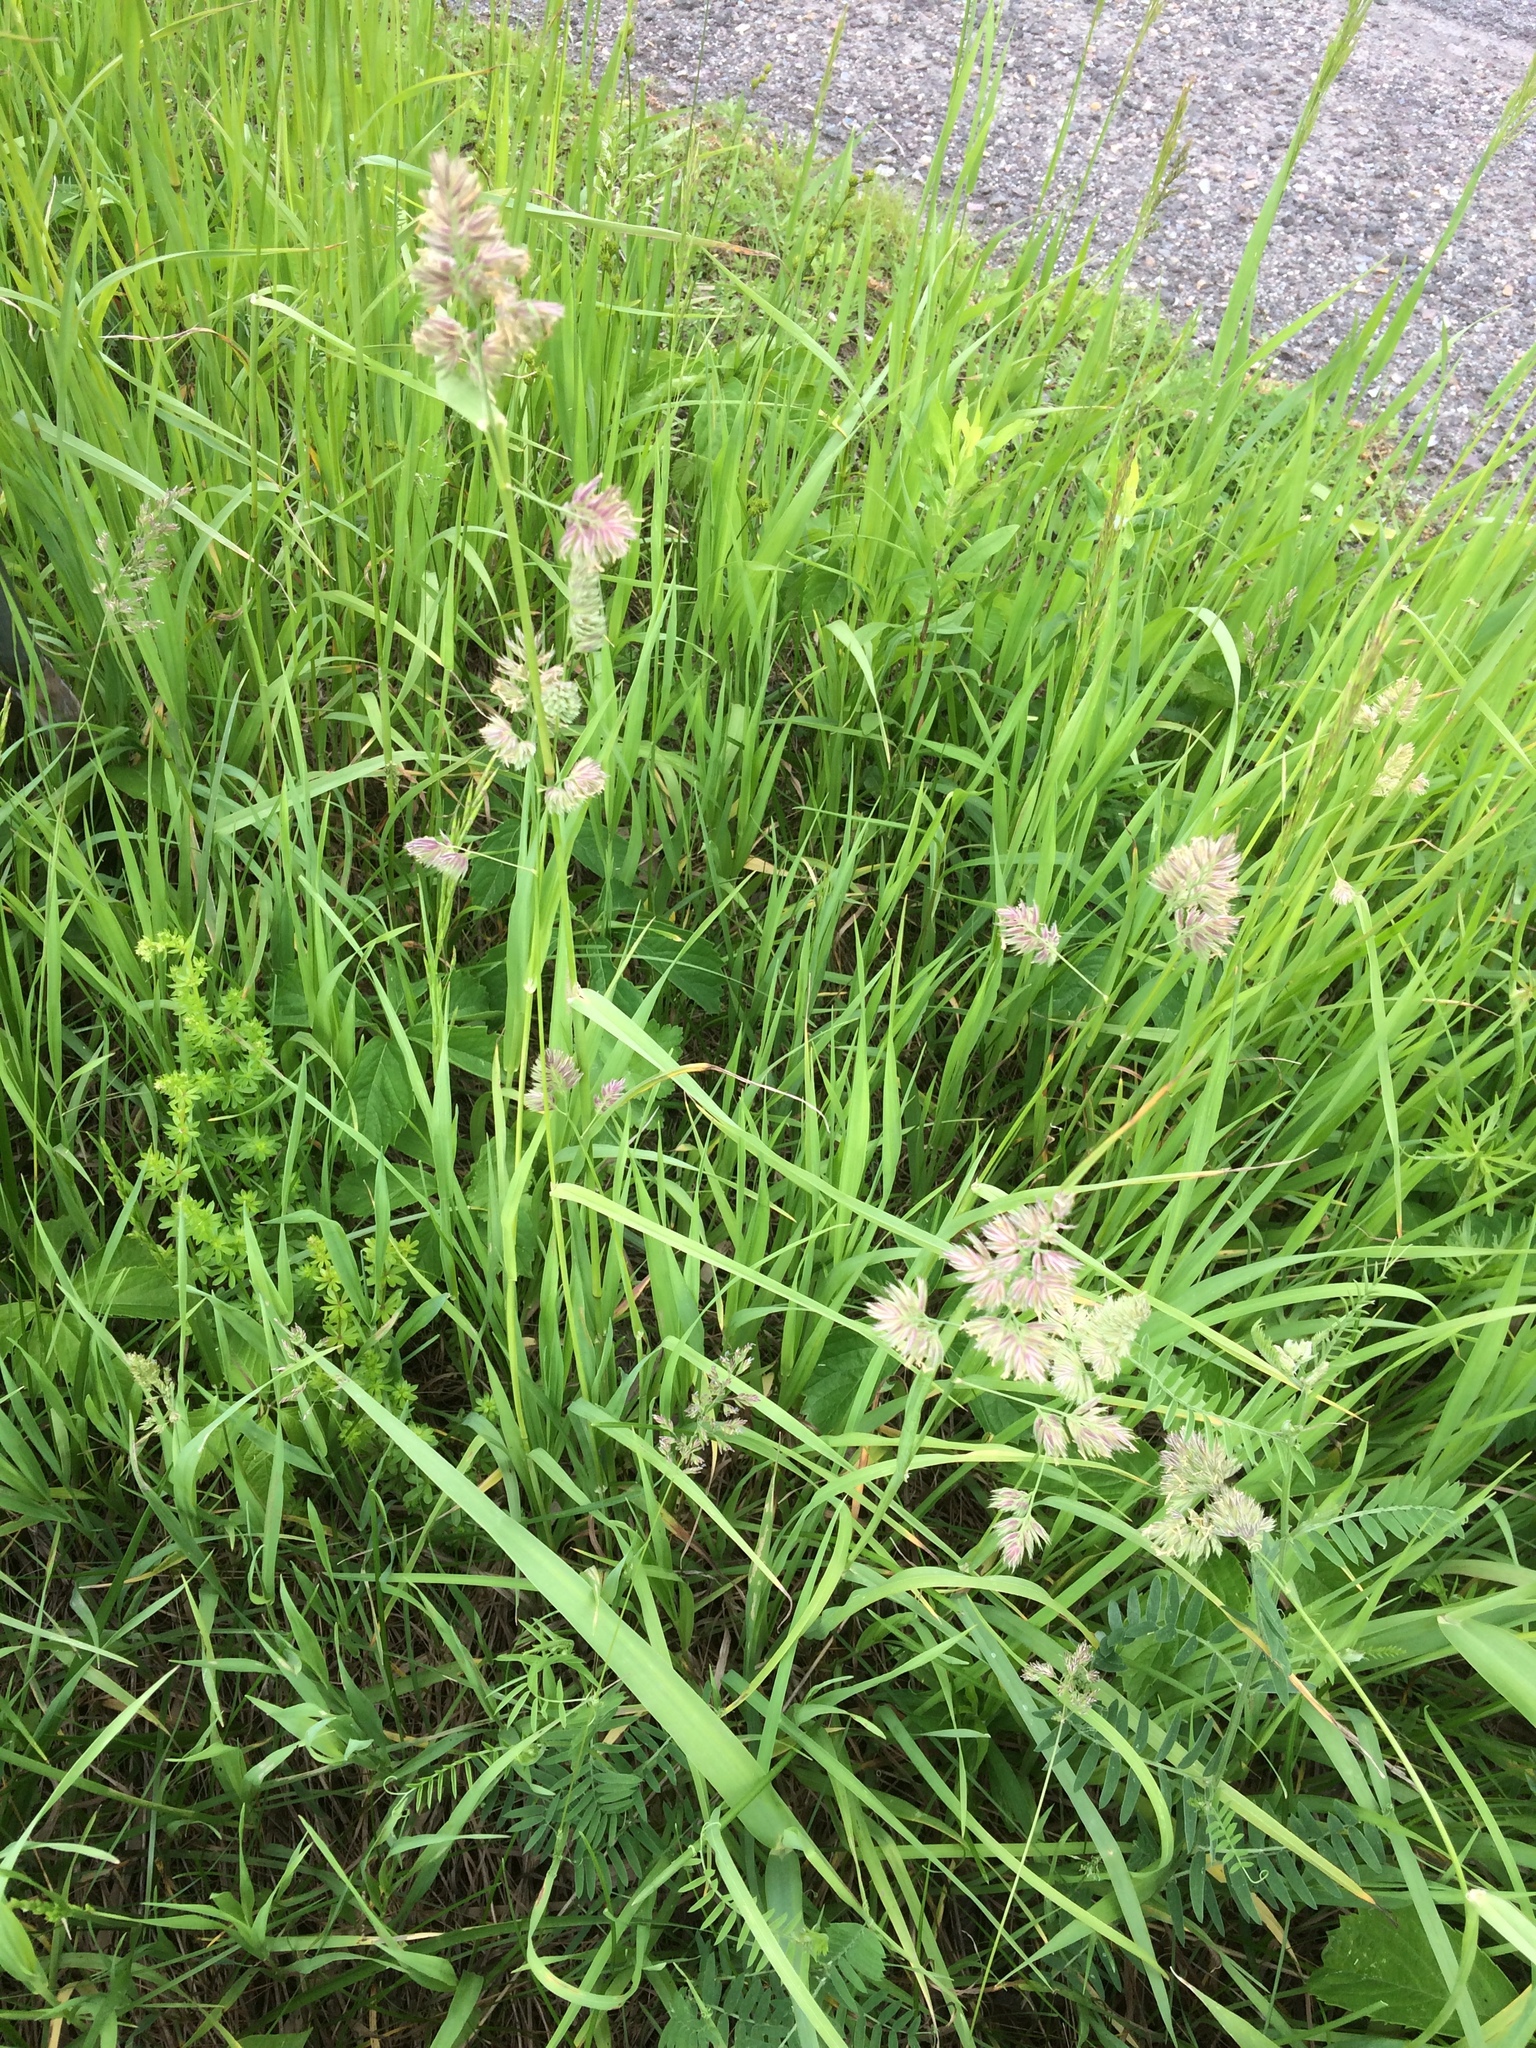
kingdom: Plantae
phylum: Tracheophyta
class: Liliopsida
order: Poales
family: Poaceae
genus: Dactylis
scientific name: Dactylis glomerata
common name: Orchardgrass
